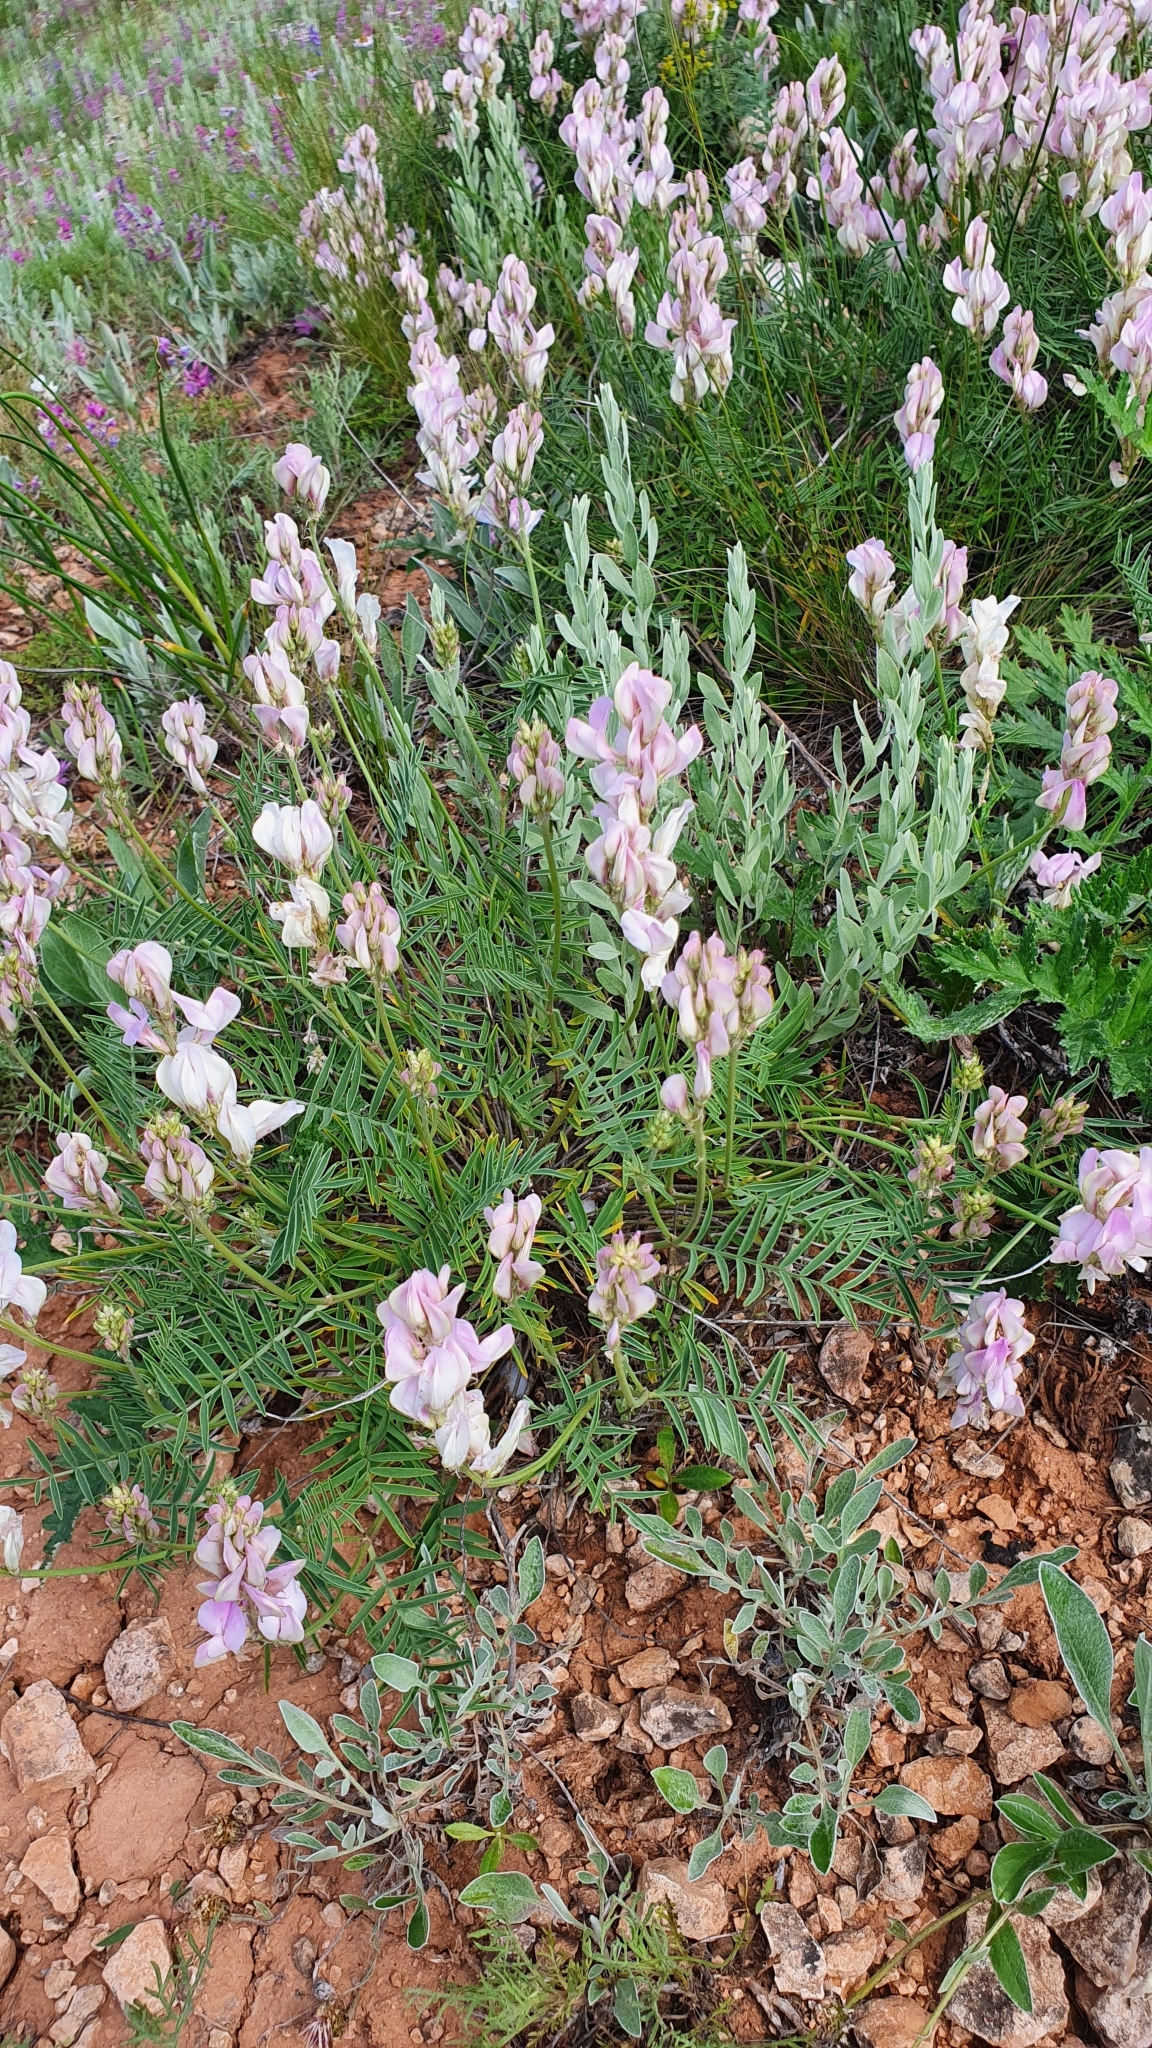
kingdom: Plantae
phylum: Tracheophyta
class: Magnoliopsida
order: Fabales
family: Fabaceae
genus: Hedysarum
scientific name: Hedysarum razoumovianum
